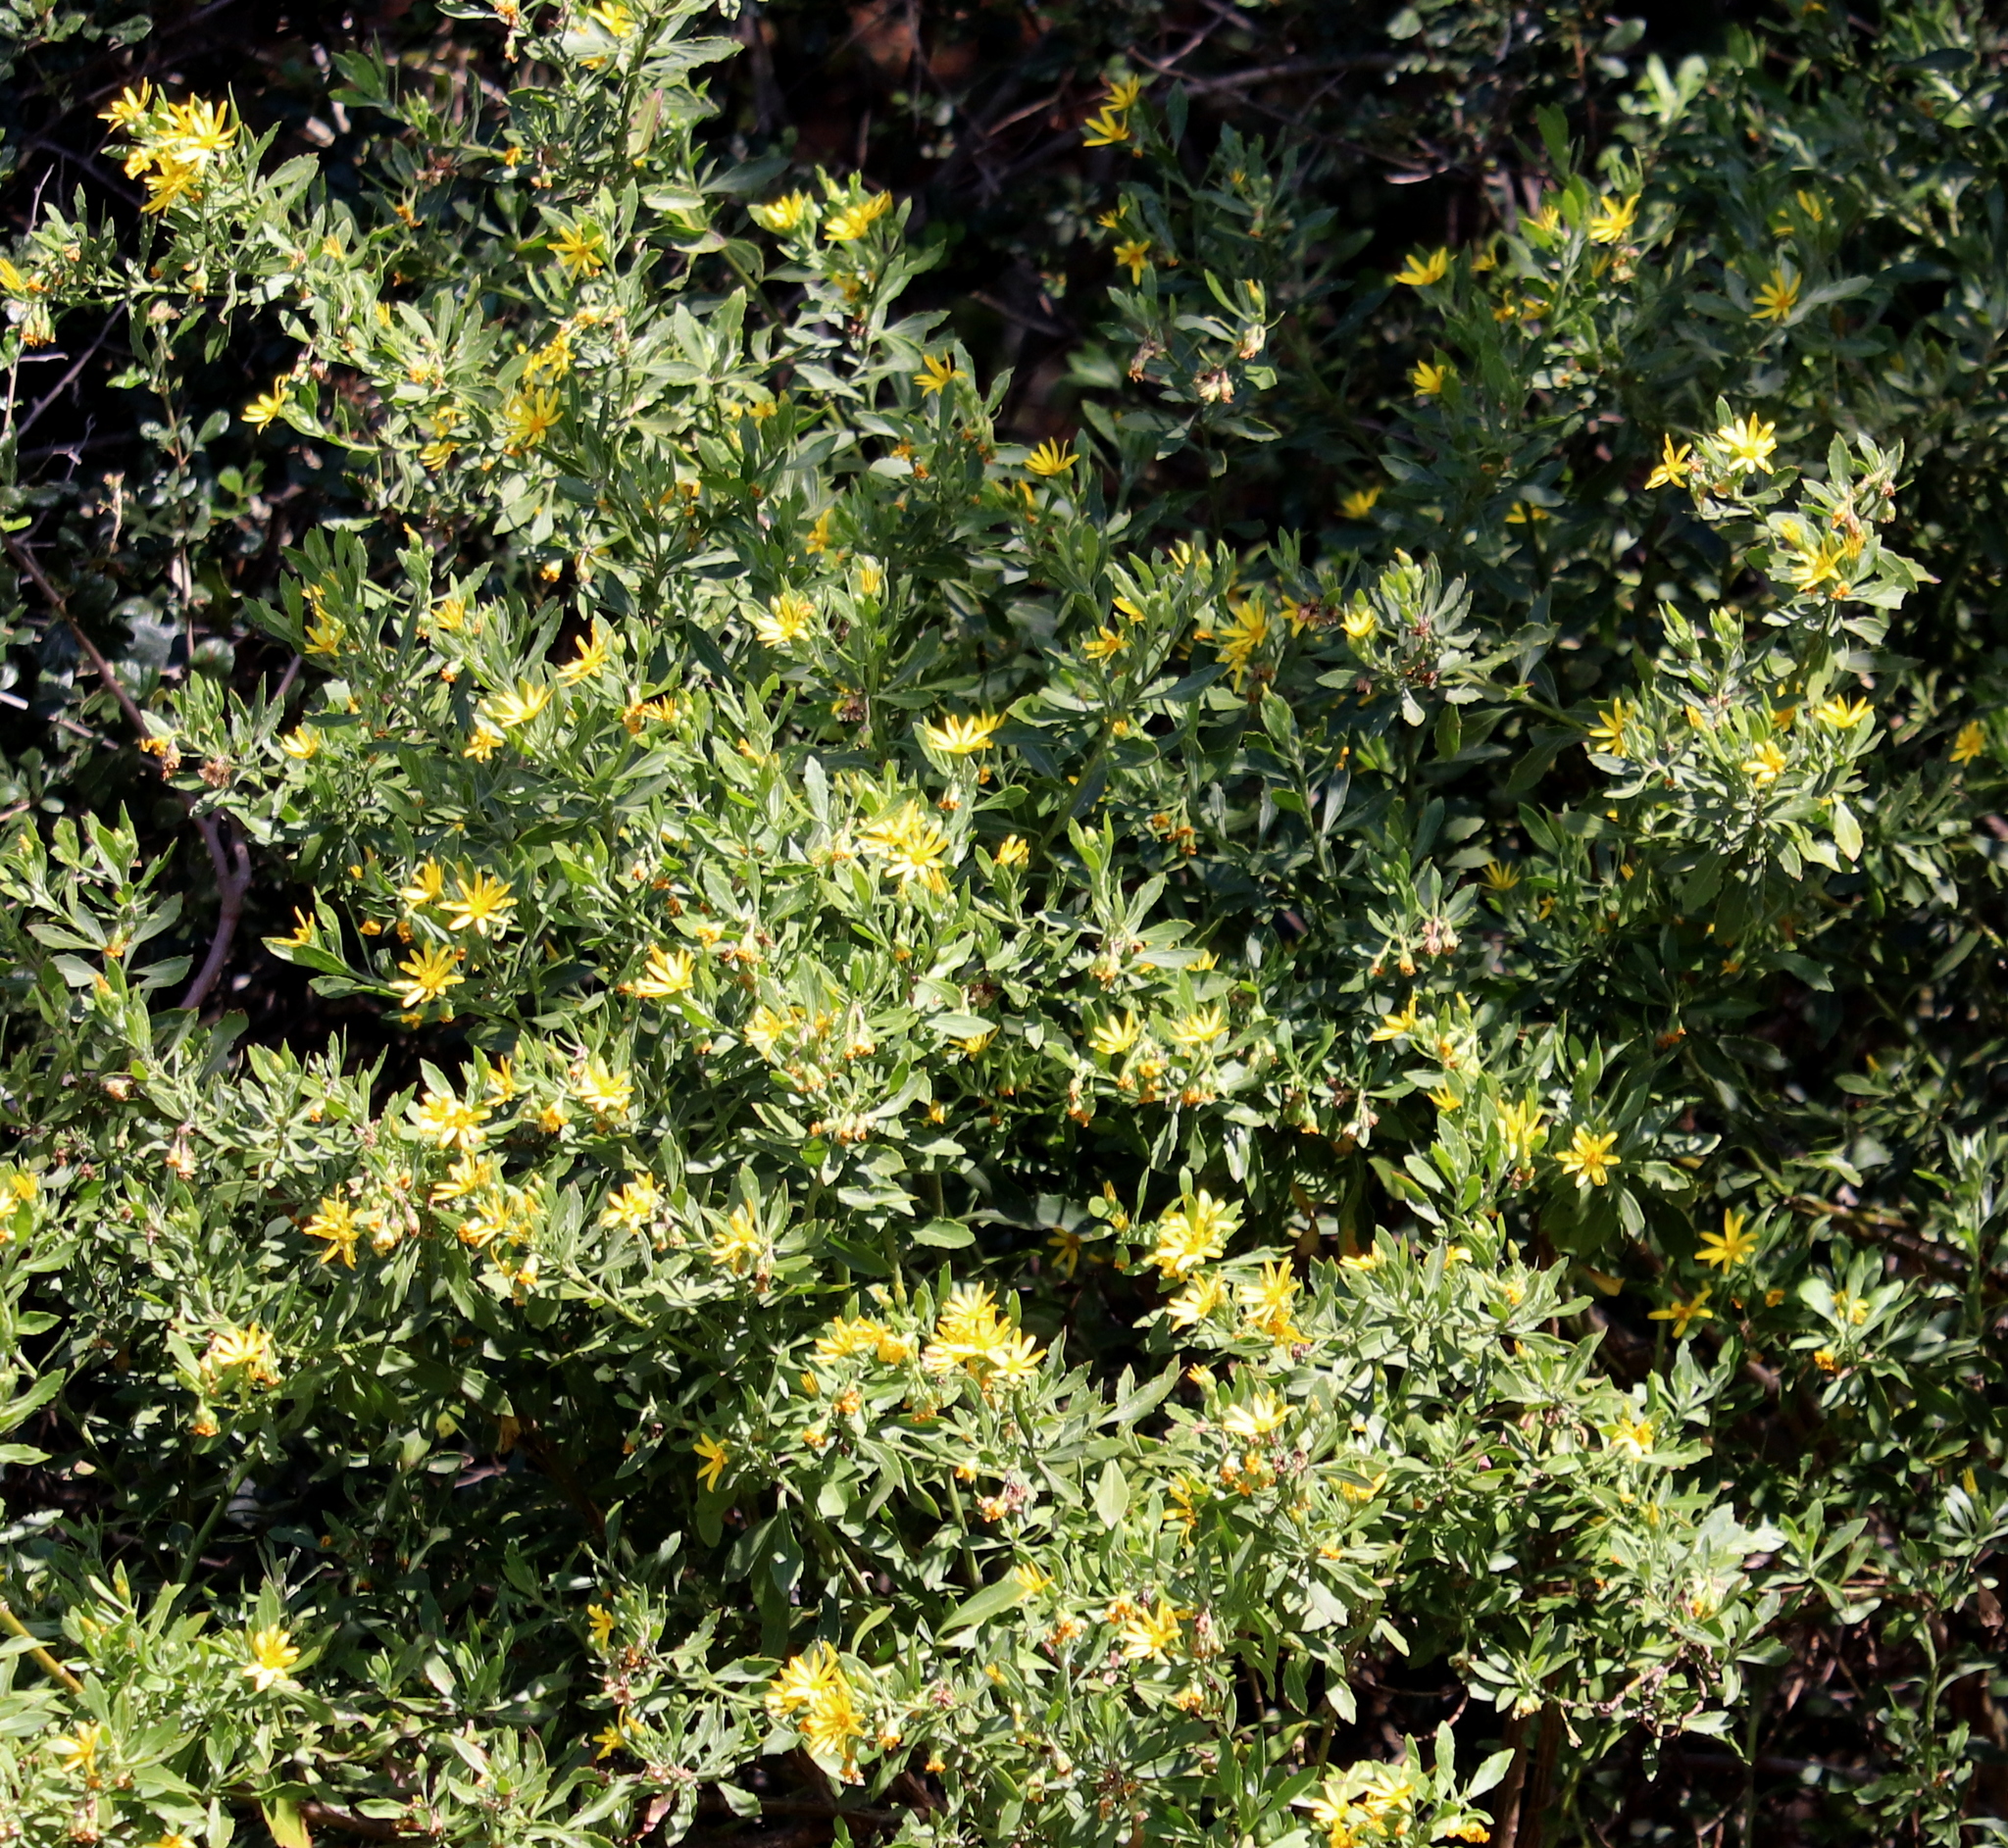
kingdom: Plantae
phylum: Tracheophyta
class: Magnoliopsida
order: Asterales
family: Asteraceae
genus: Osteospermum
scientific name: Osteospermum moniliferum
